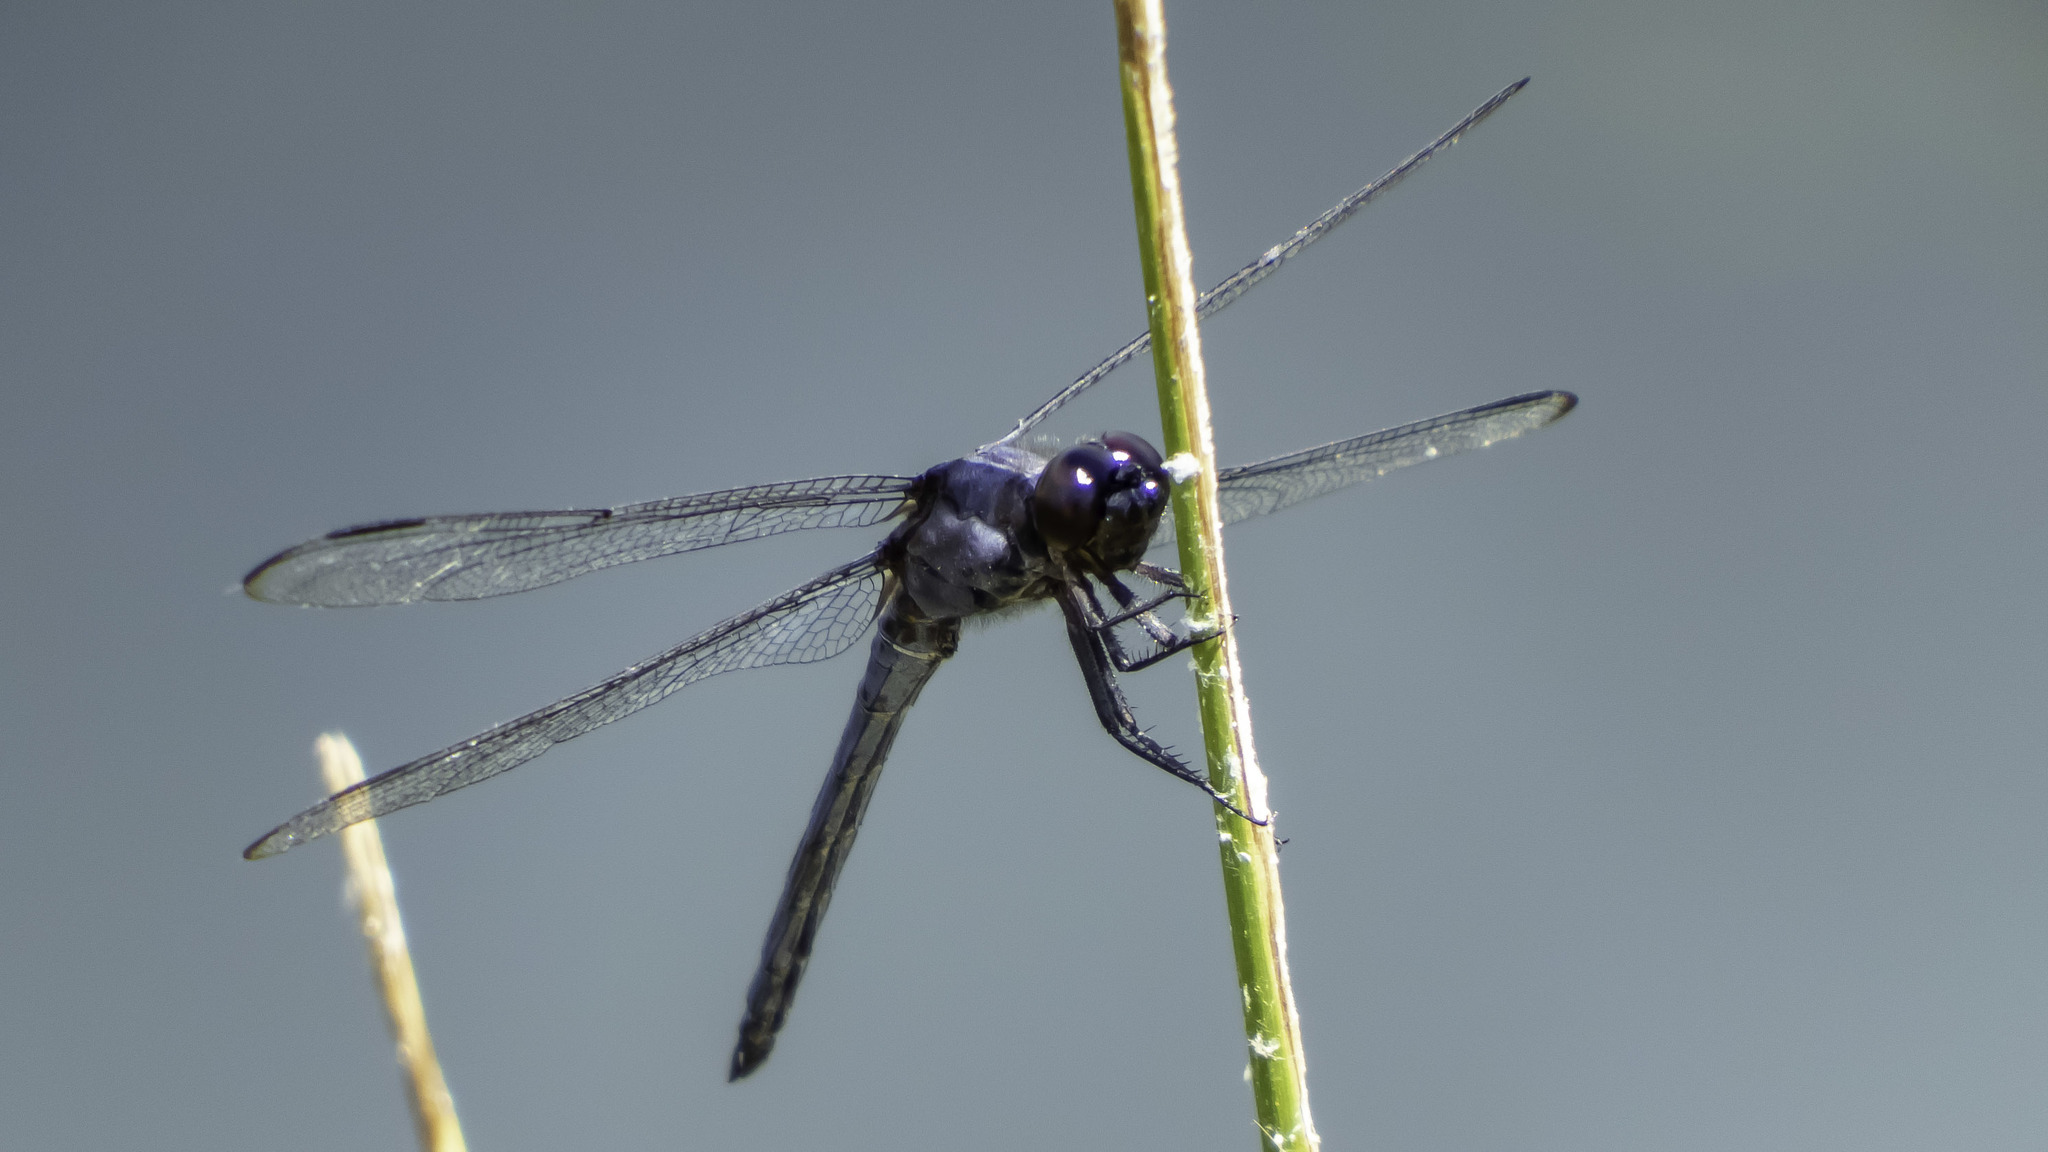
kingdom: Animalia
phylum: Arthropoda
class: Insecta
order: Odonata
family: Libellulidae
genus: Libellula
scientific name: Libellula incesta
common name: Slaty skimmer
